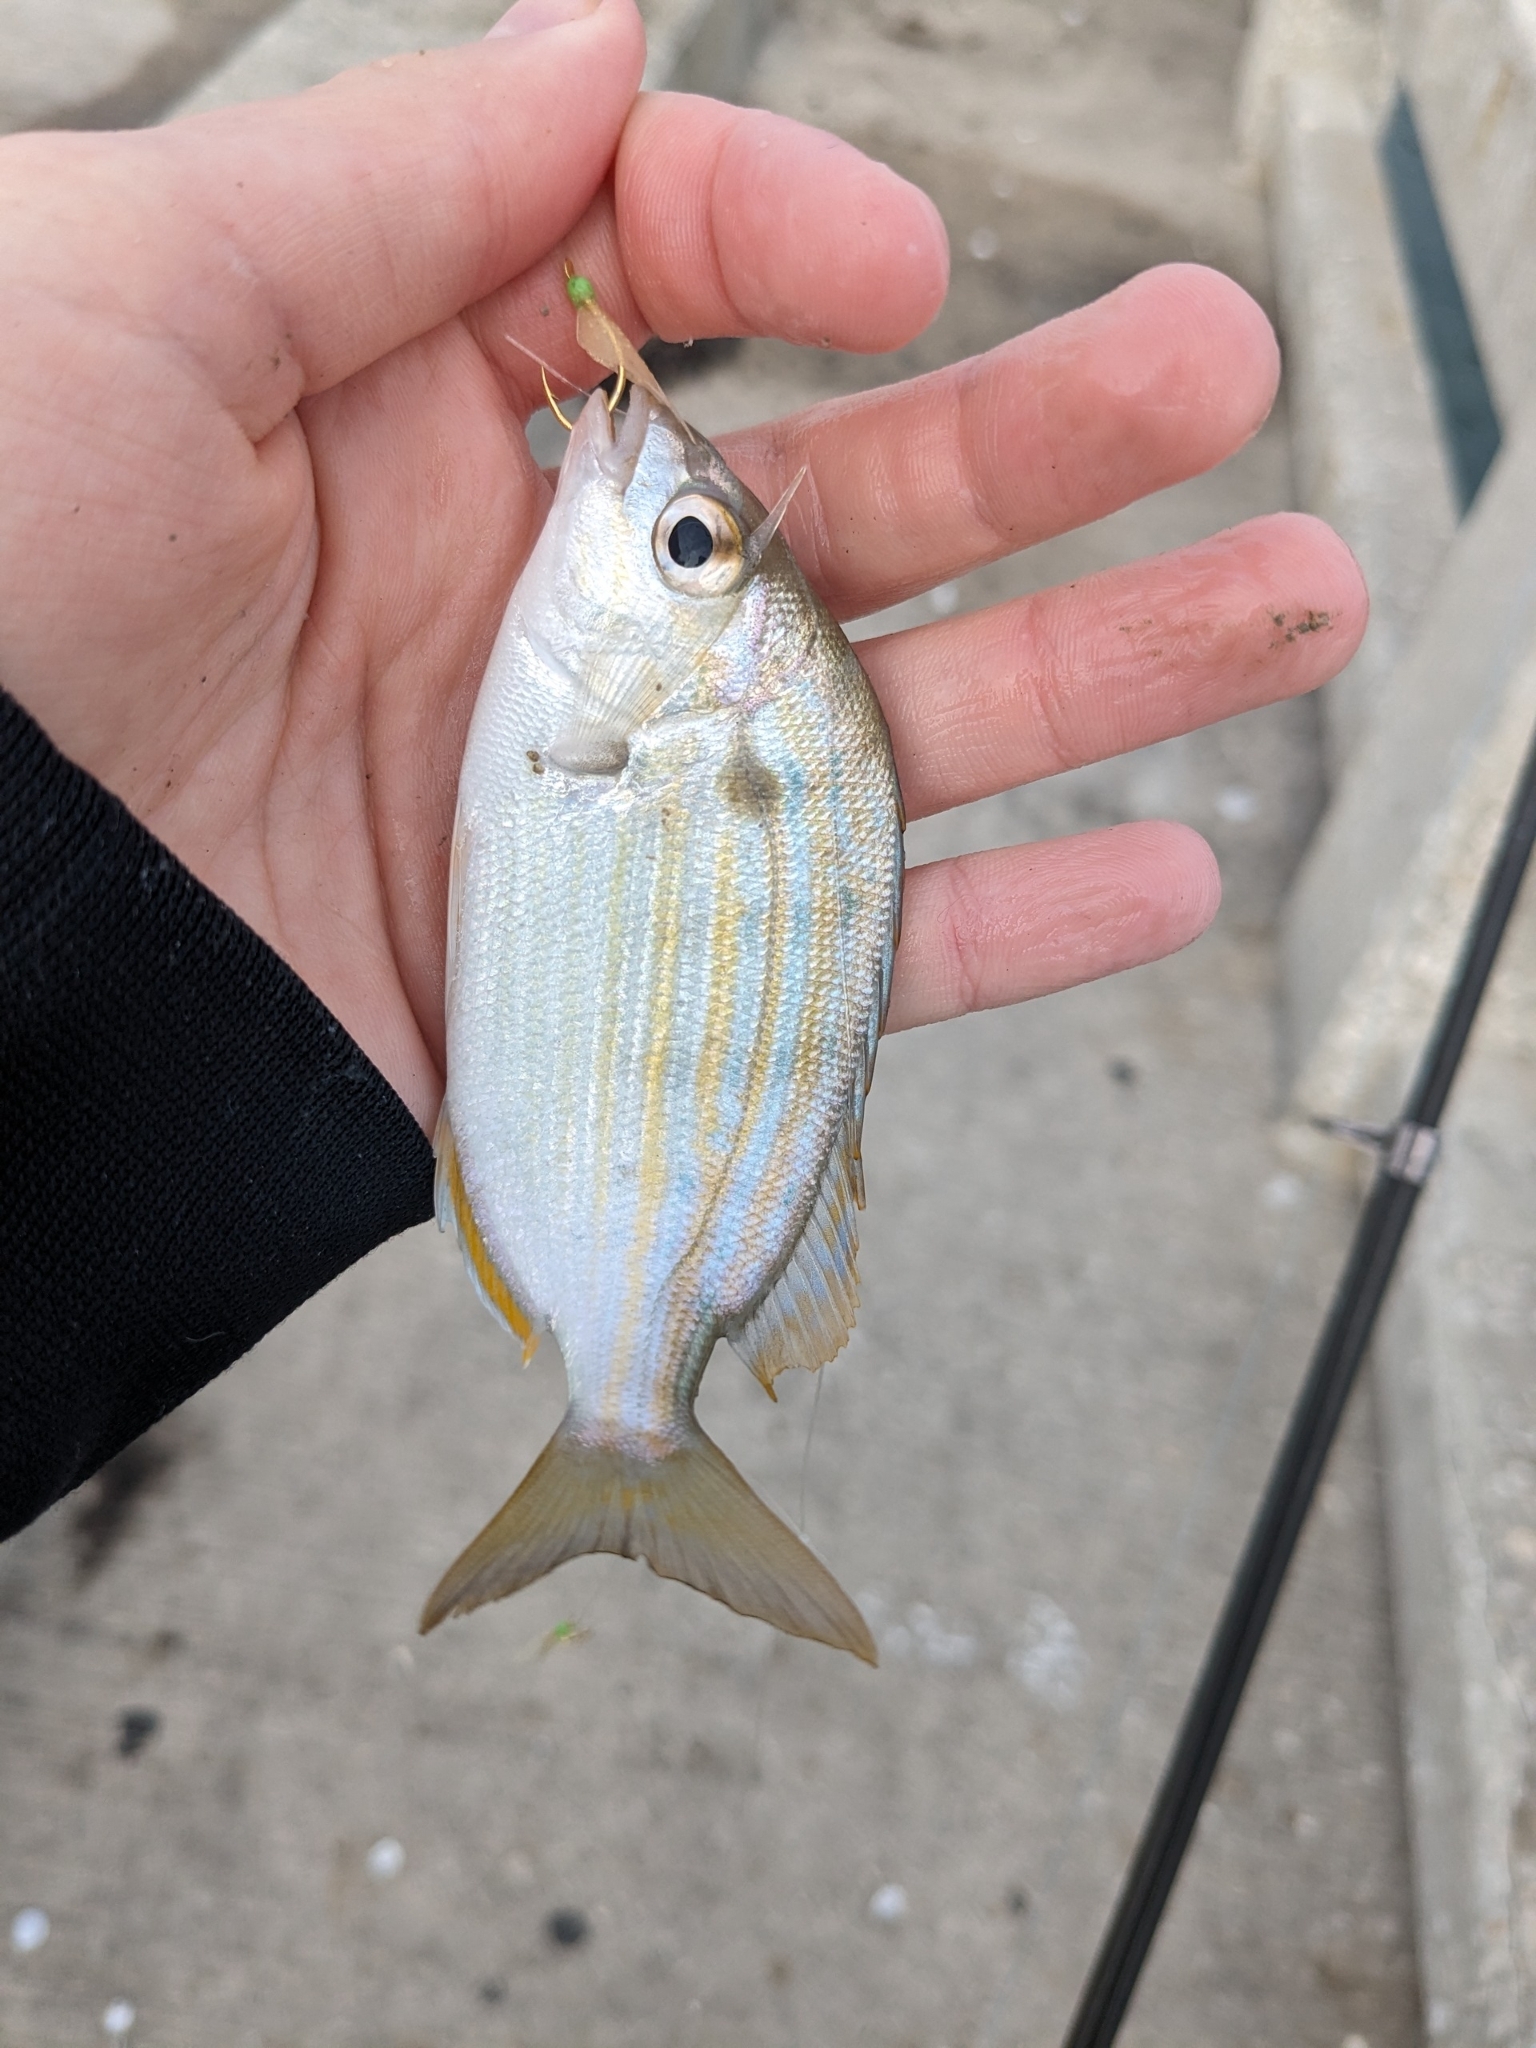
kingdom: Animalia
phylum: Chordata
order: Perciformes
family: Sparidae
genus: Lagodon
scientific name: Lagodon rhomboides
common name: Pinfish
